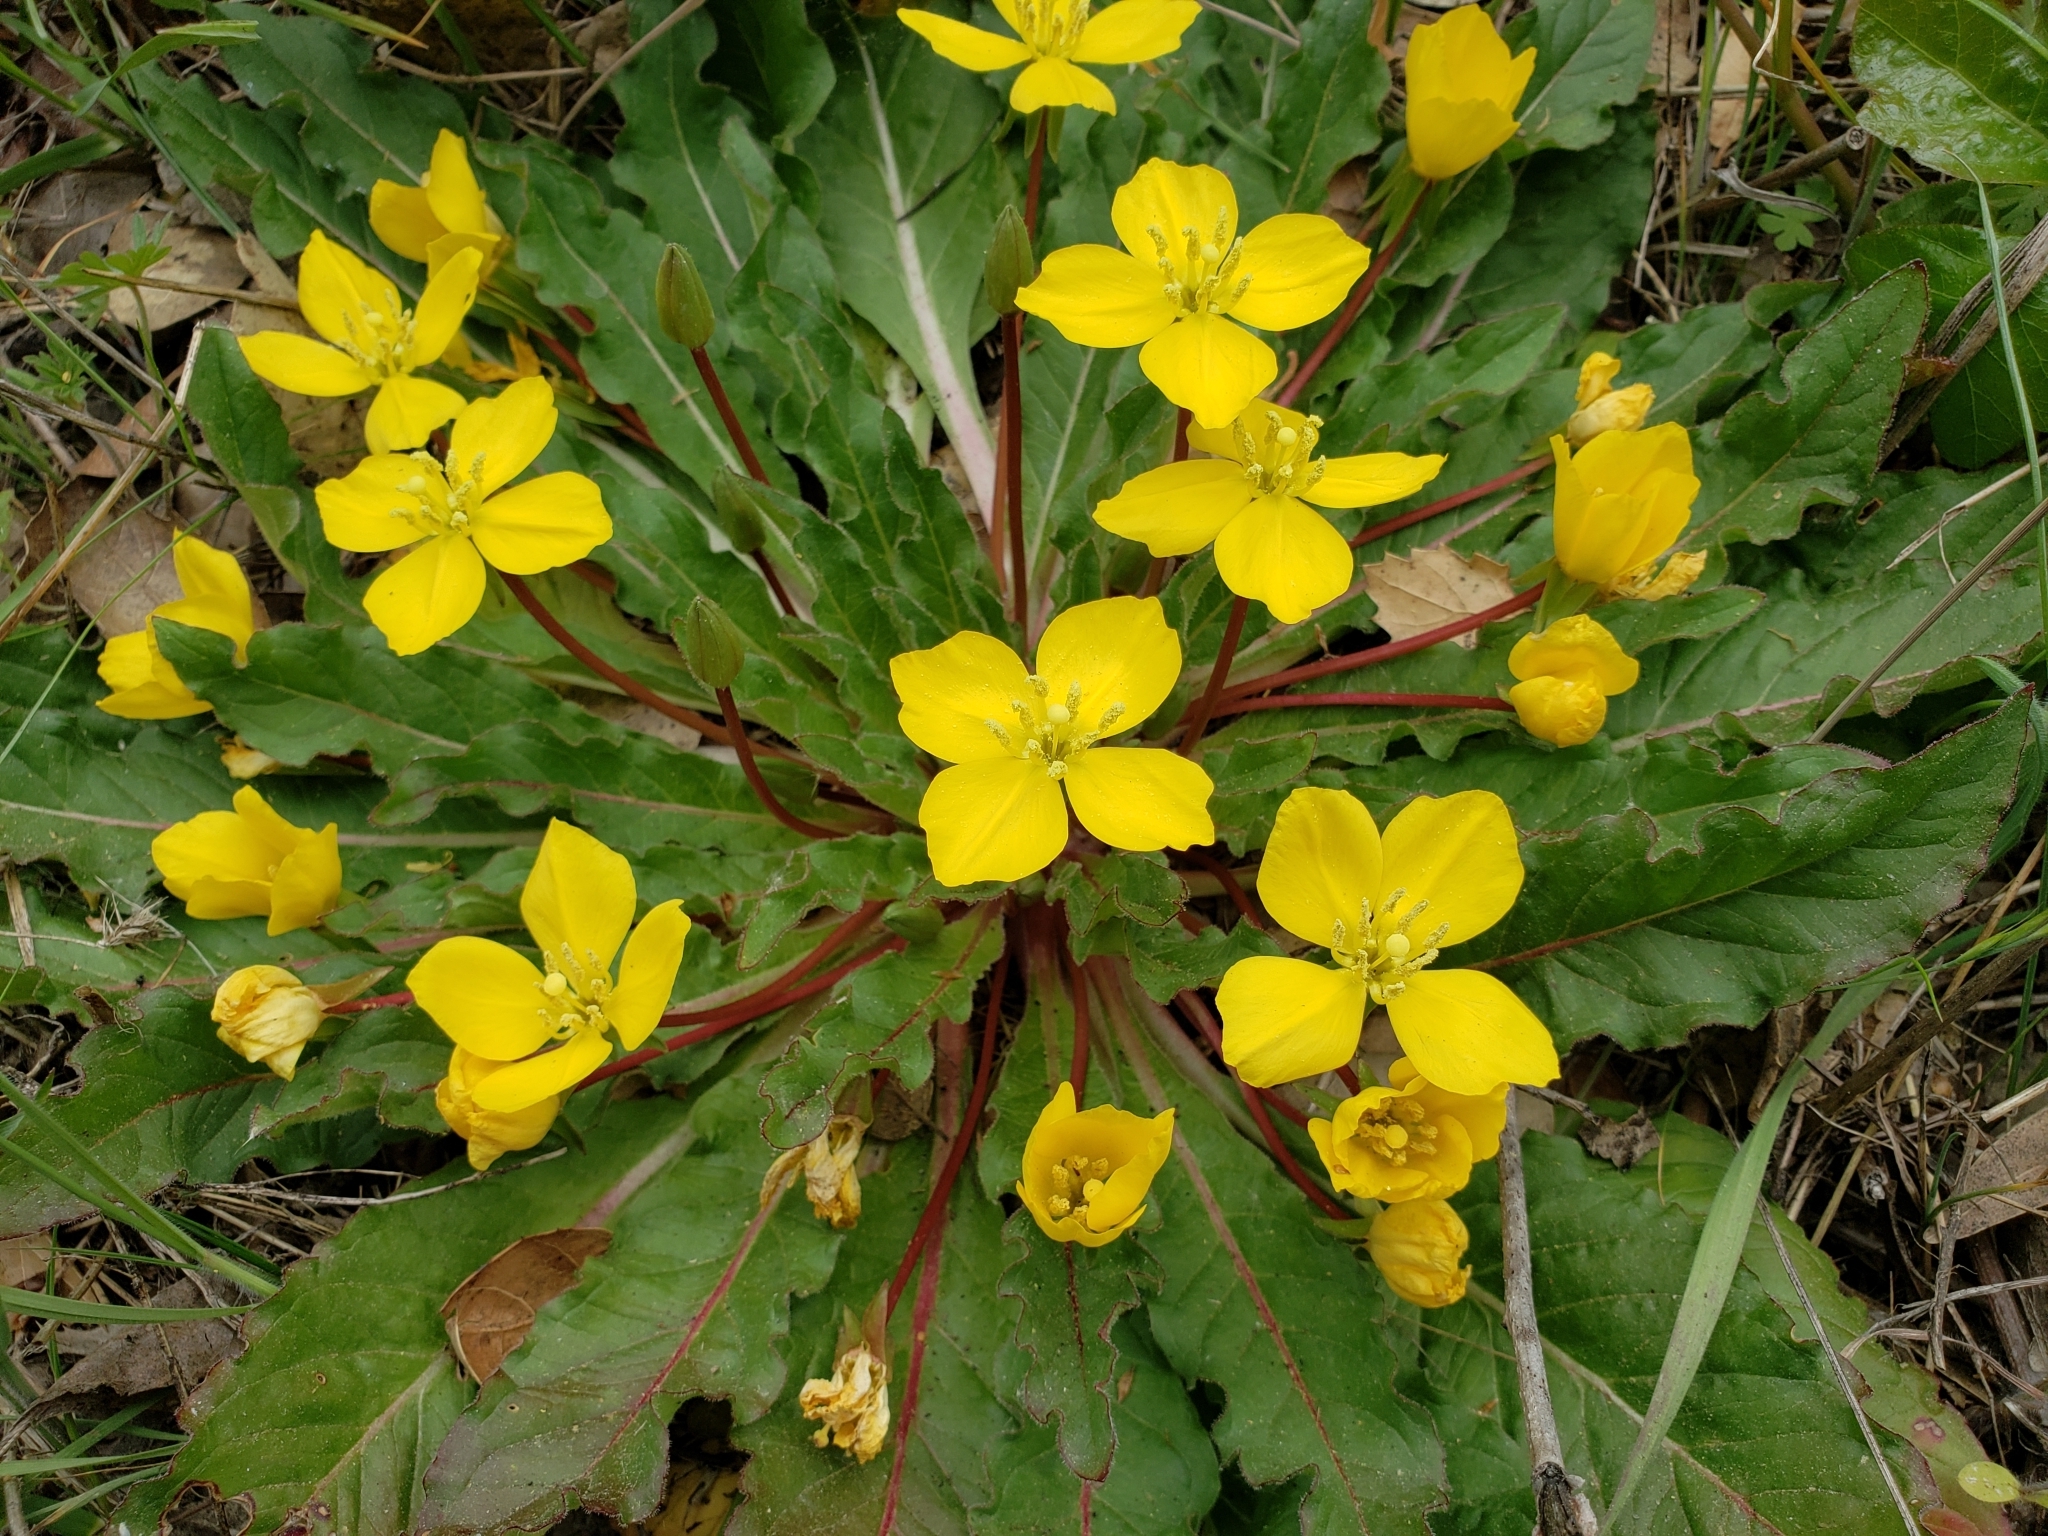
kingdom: Plantae
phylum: Tracheophyta
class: Magnoliopsida
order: Myrtales
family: Onagraceae
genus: Taraxia
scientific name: Taraxia ovata
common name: Goldeneggs
